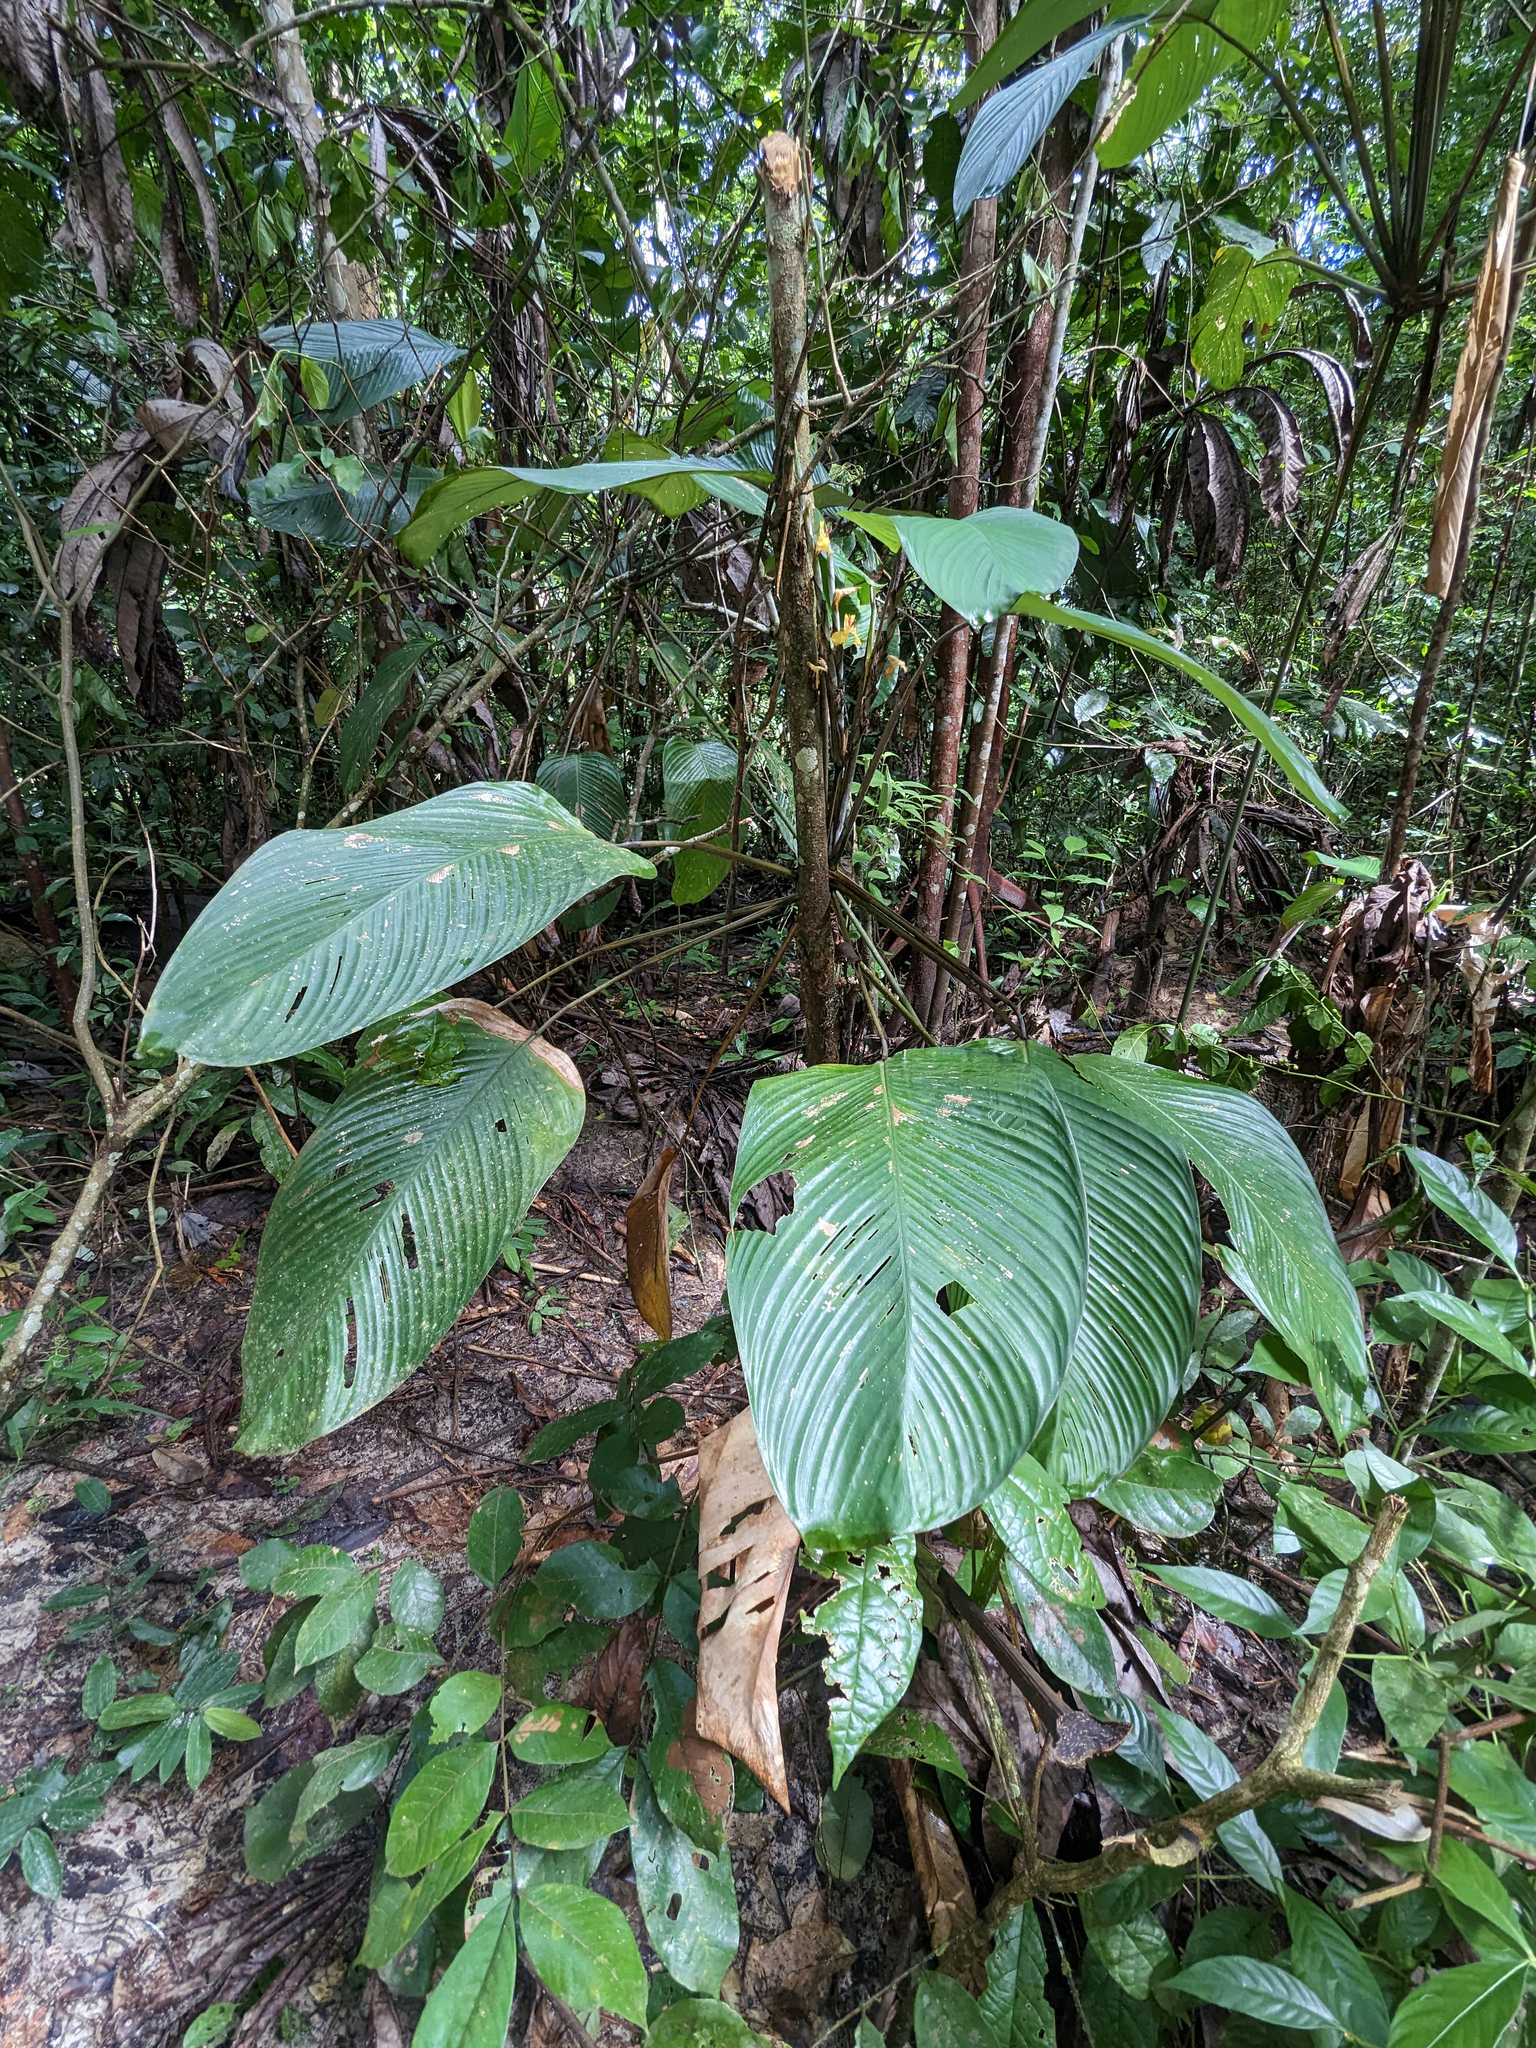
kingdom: Plantae
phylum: Tracheophyta
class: Liliopsida
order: Zingiberales
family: Marantaceae
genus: Ischnosiphon
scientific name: Ischnosiphon obliquus
